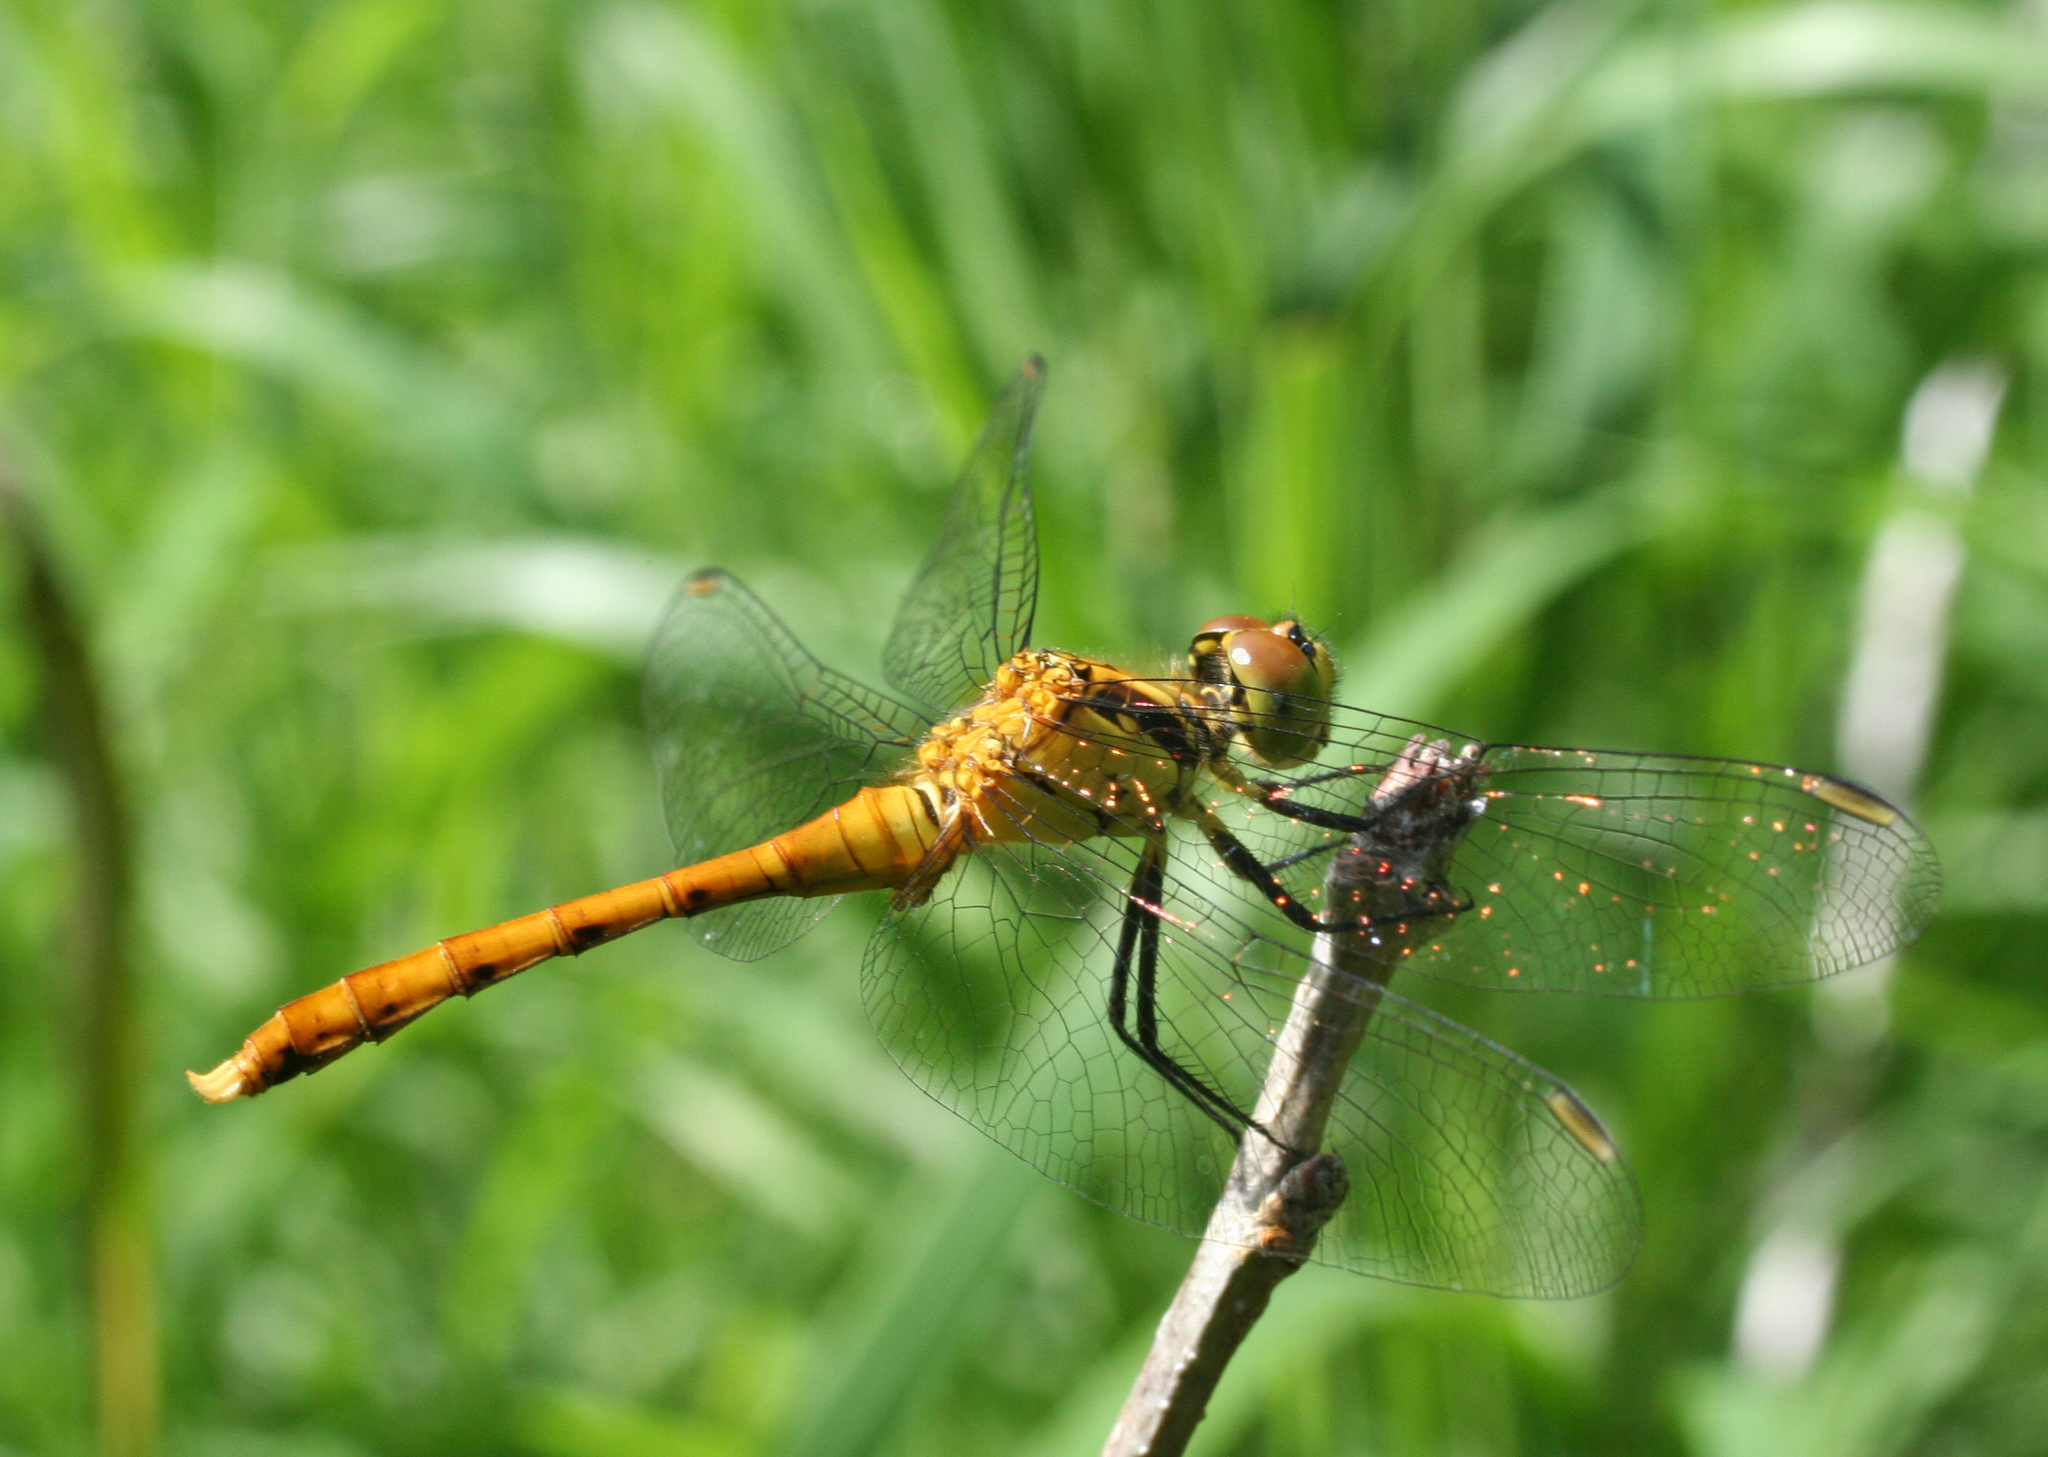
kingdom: Animalia
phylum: Arthropoda
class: Insecta
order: Odonata
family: Libellulidae
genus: Sympetrum
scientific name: Sympetrum eroticum
